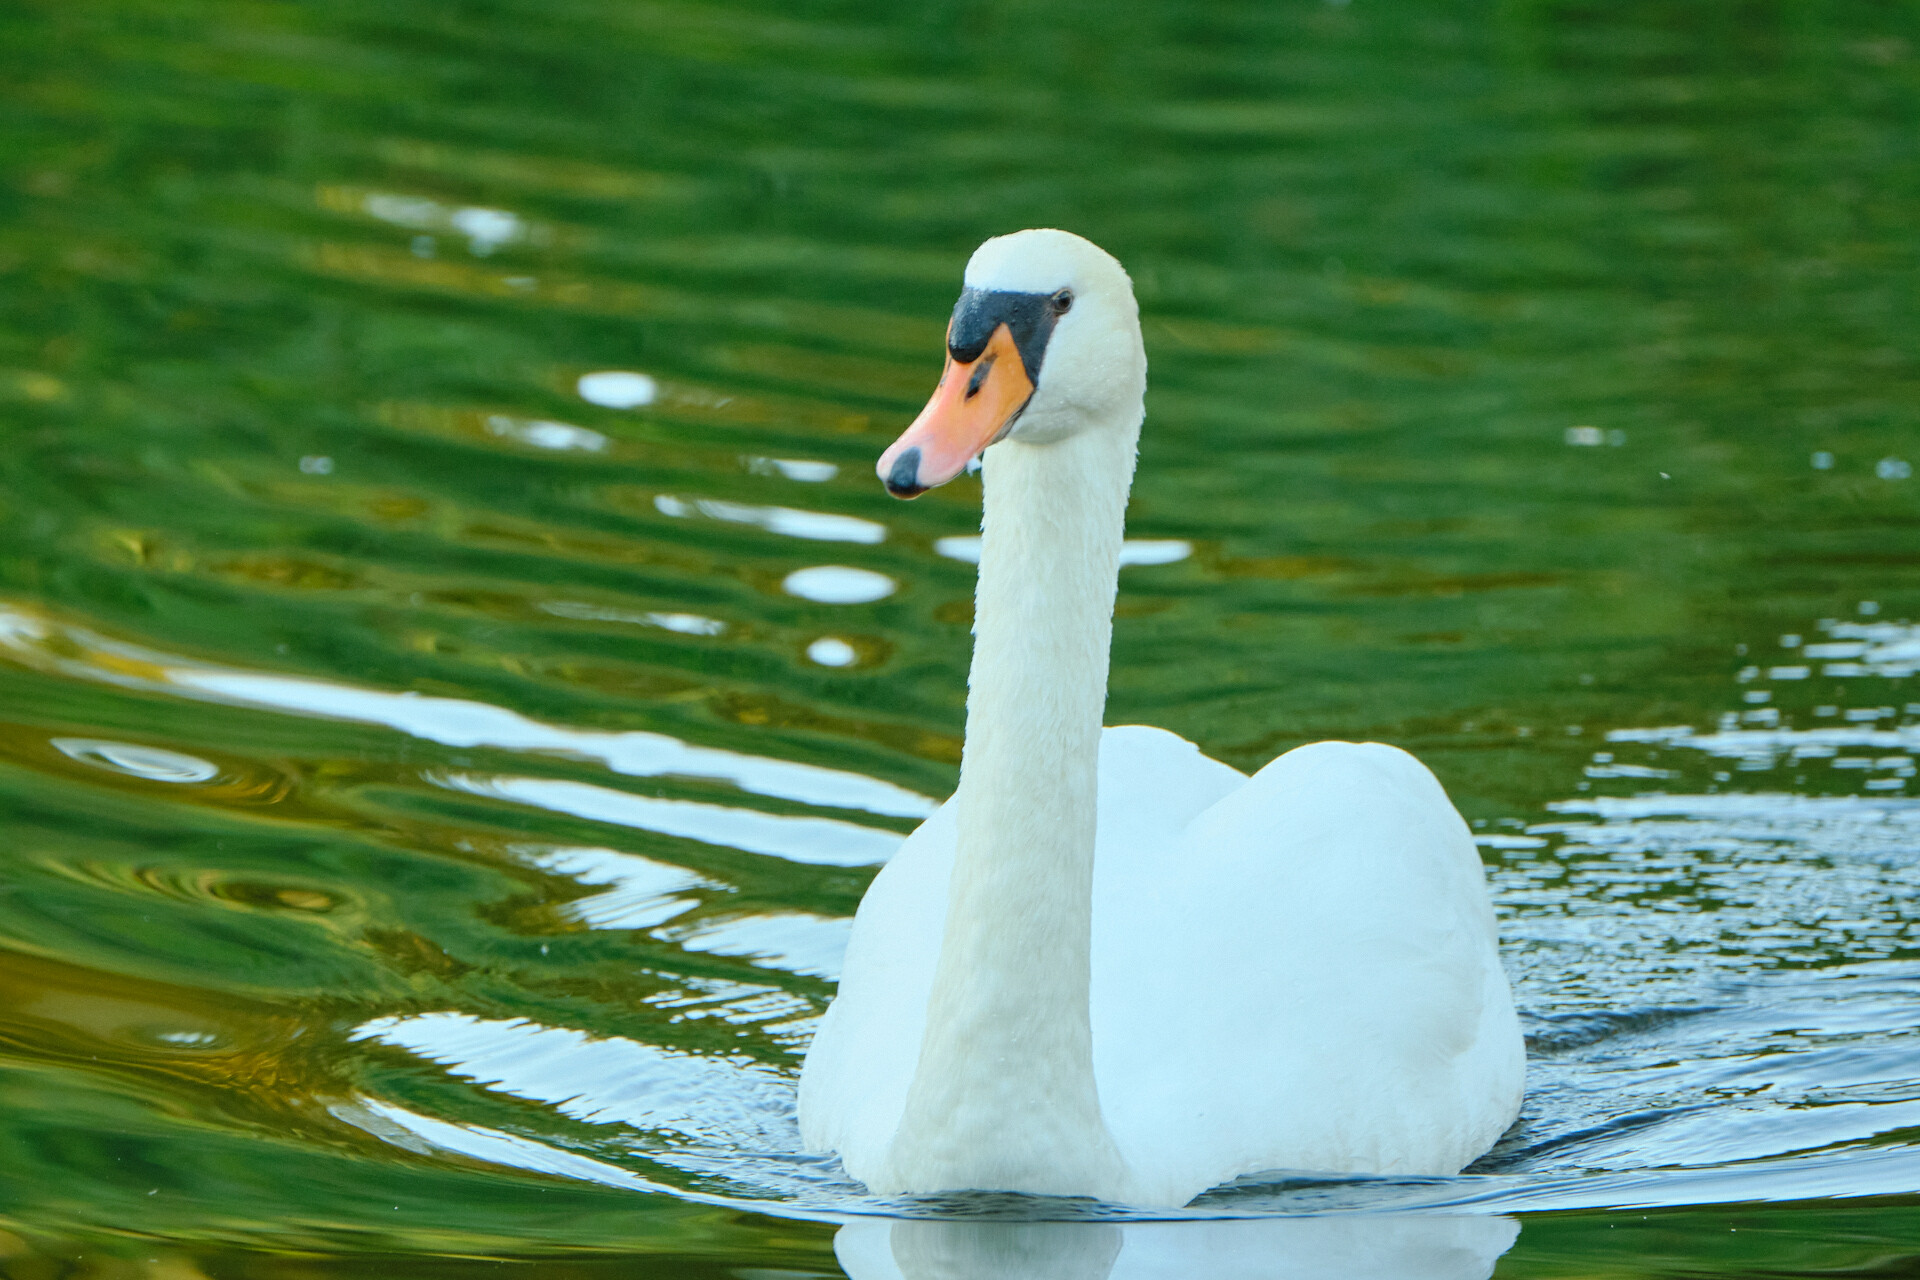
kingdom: Animalia
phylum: Chordata
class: Aves
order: Anseriformes
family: Anatidae
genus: Cygnus
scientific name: Cygnus olor
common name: Mute swan
